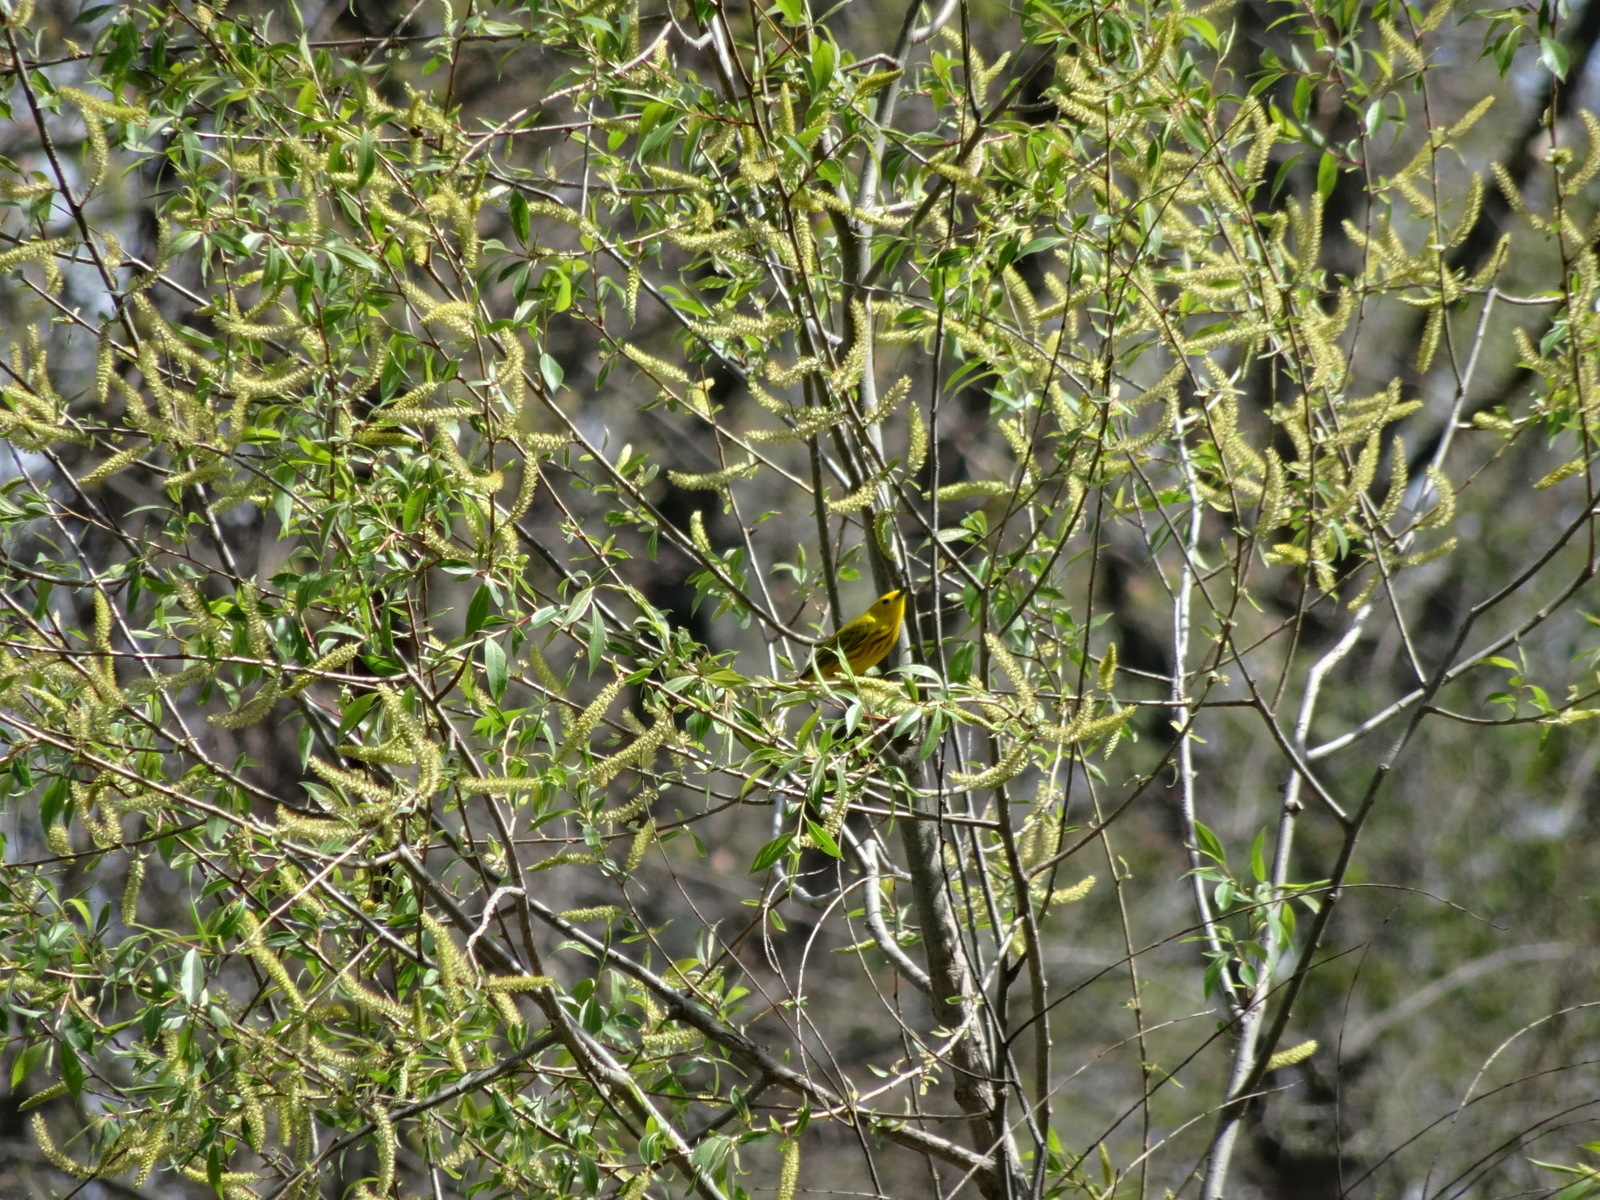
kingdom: Animalia
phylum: Chordata
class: Aves
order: Passeriformes
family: Parulidae
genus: Setophaga
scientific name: Setophaga petechia
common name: Yellow warbler
